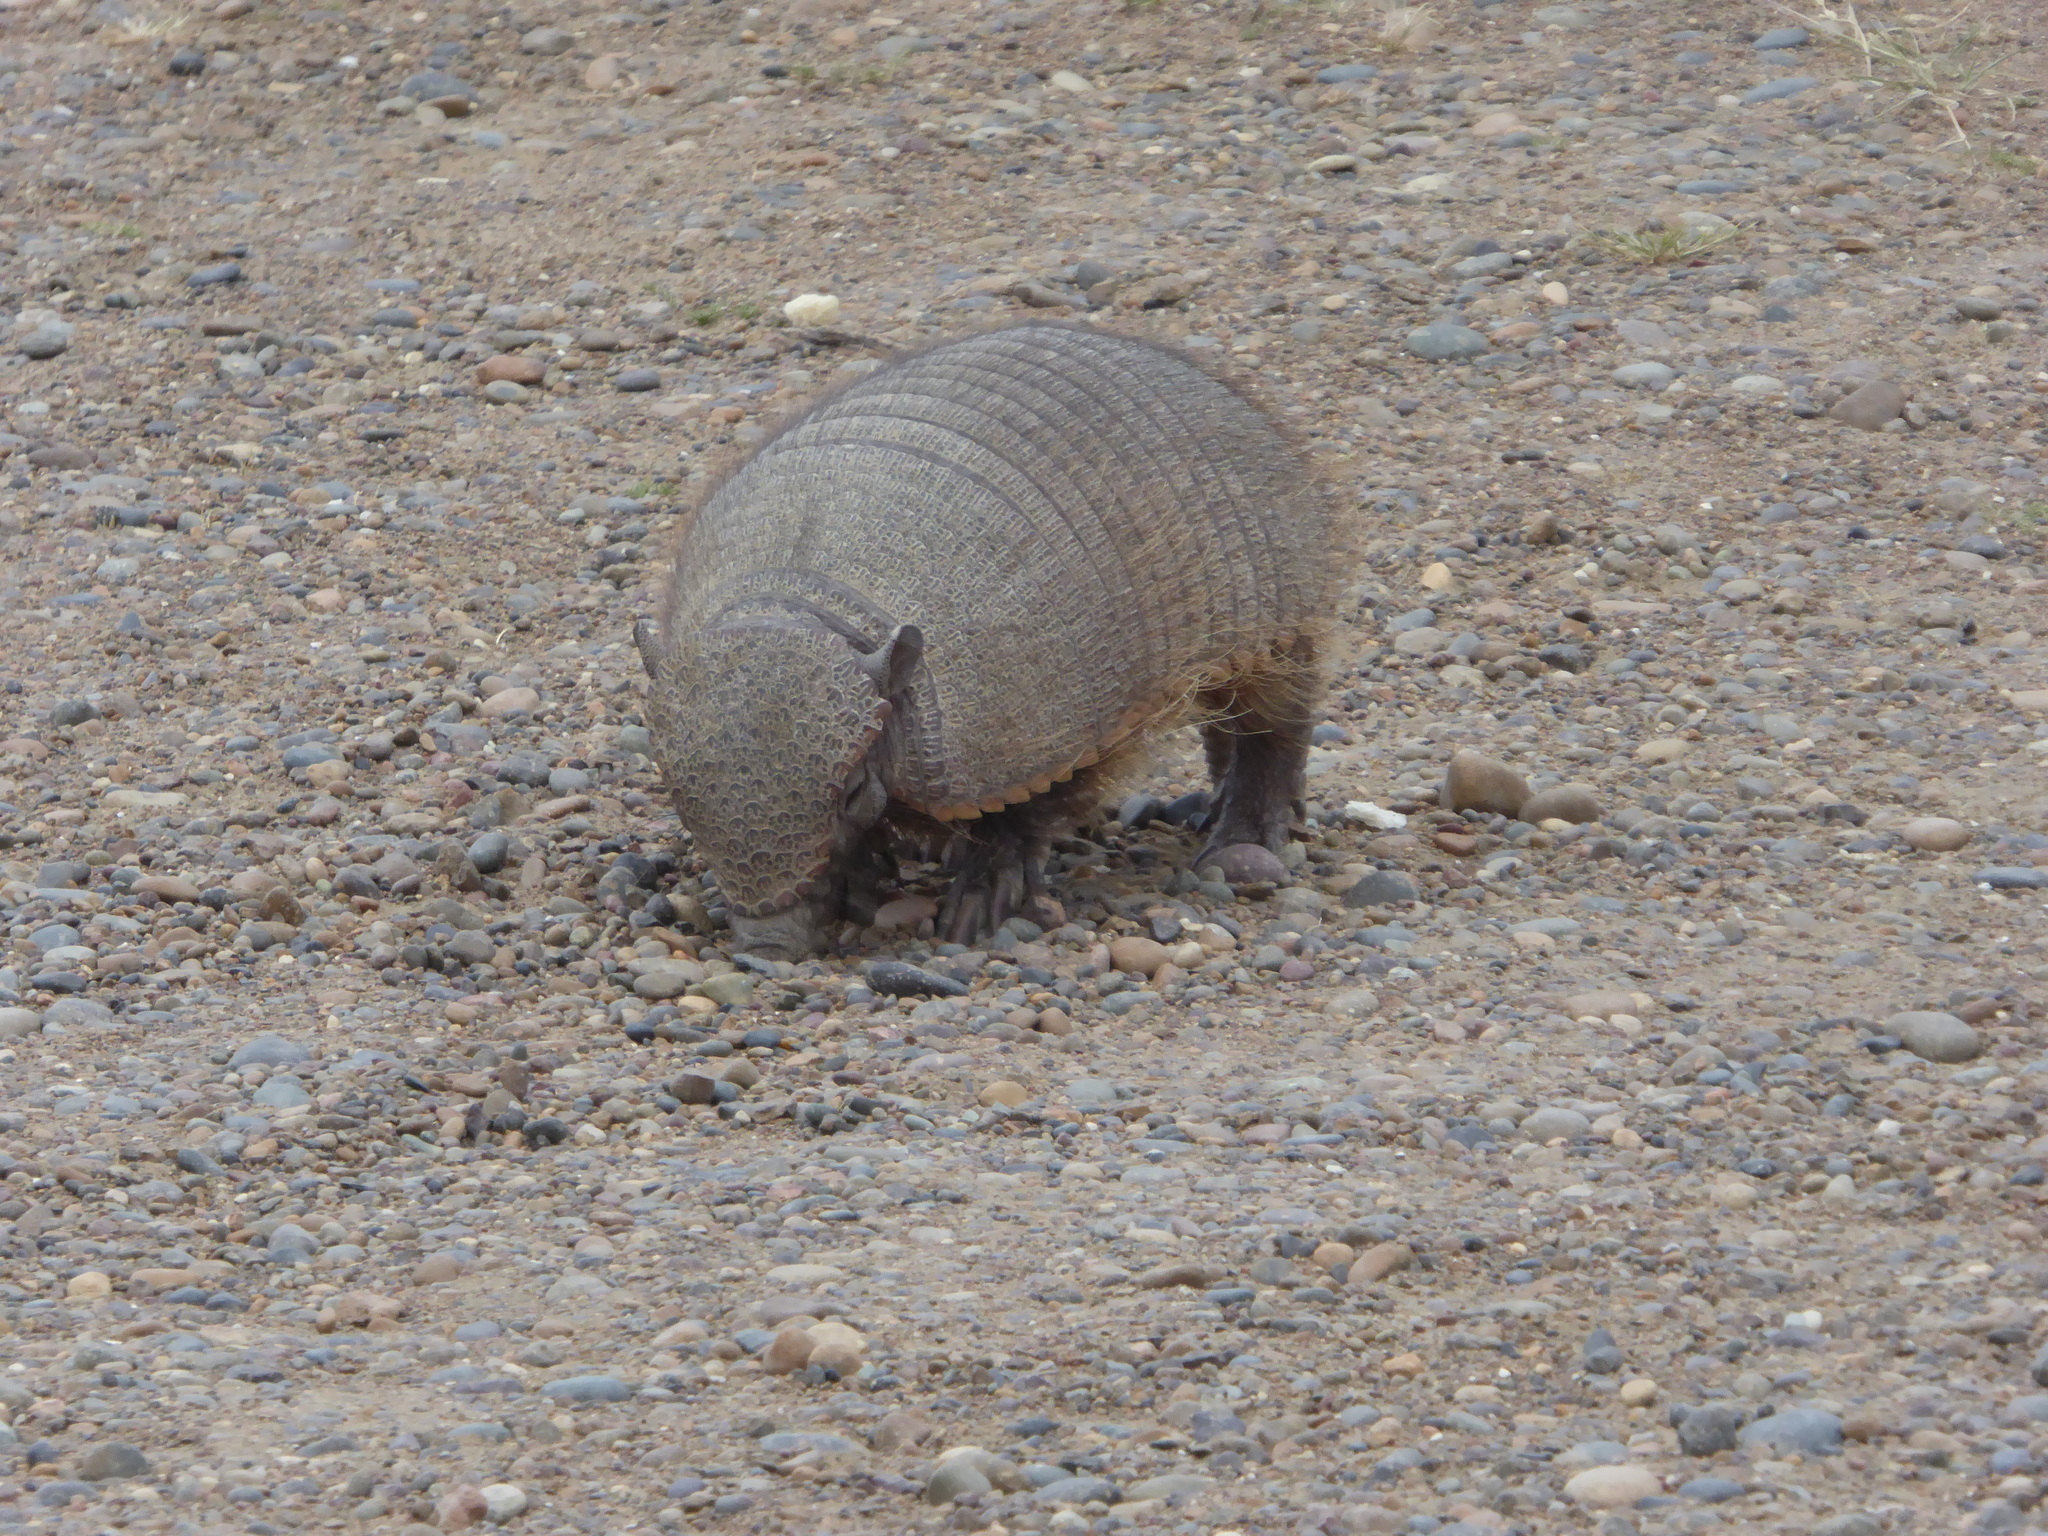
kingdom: Animalia
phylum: Chordata
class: Mammalia
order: Cingulata
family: Dasypodidae
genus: Chaetophractus
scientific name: Chaetophractus villosus
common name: Big hairy armadillo
